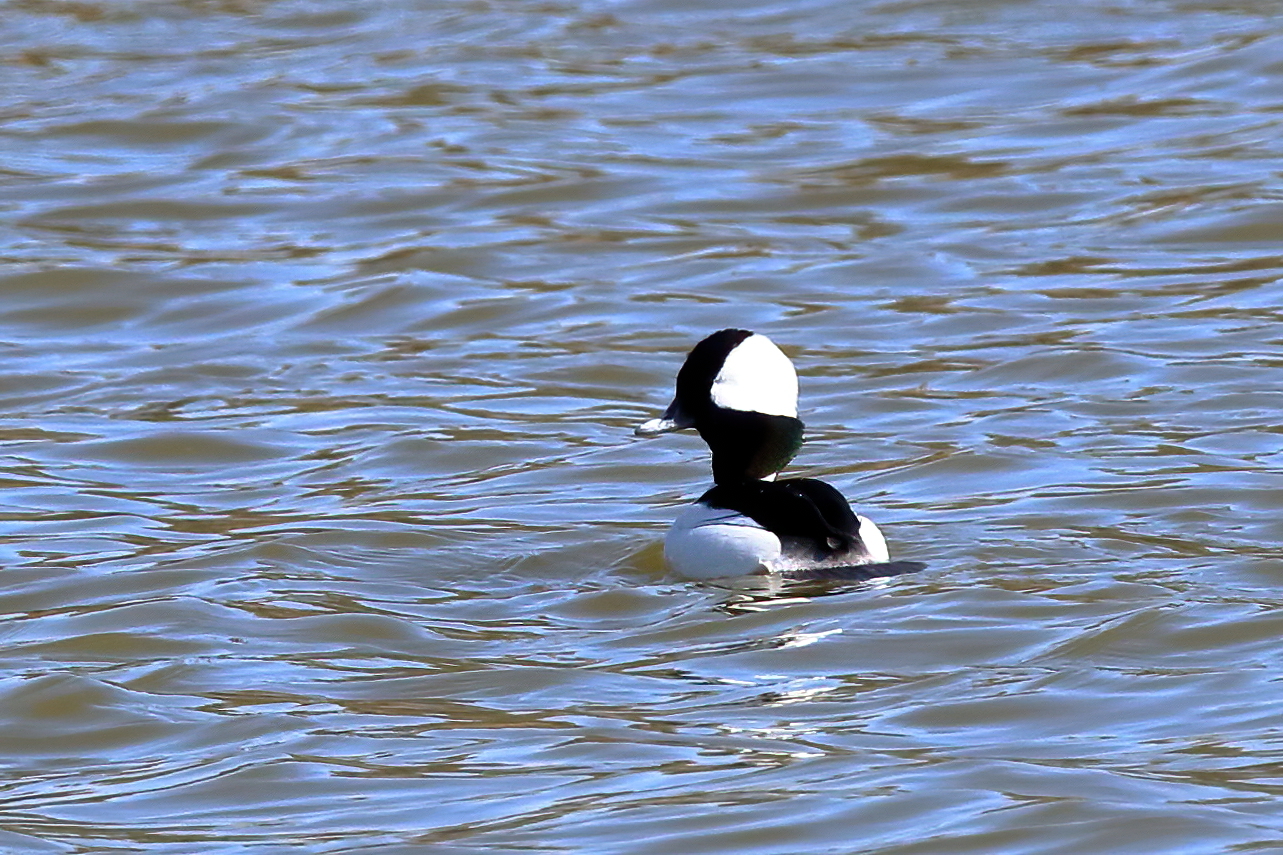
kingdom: Animalia
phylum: Chordata
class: Aves
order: Anseriformes
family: Anatidae
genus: Bucephala
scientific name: Bucephala albeola
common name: Bufflehead
